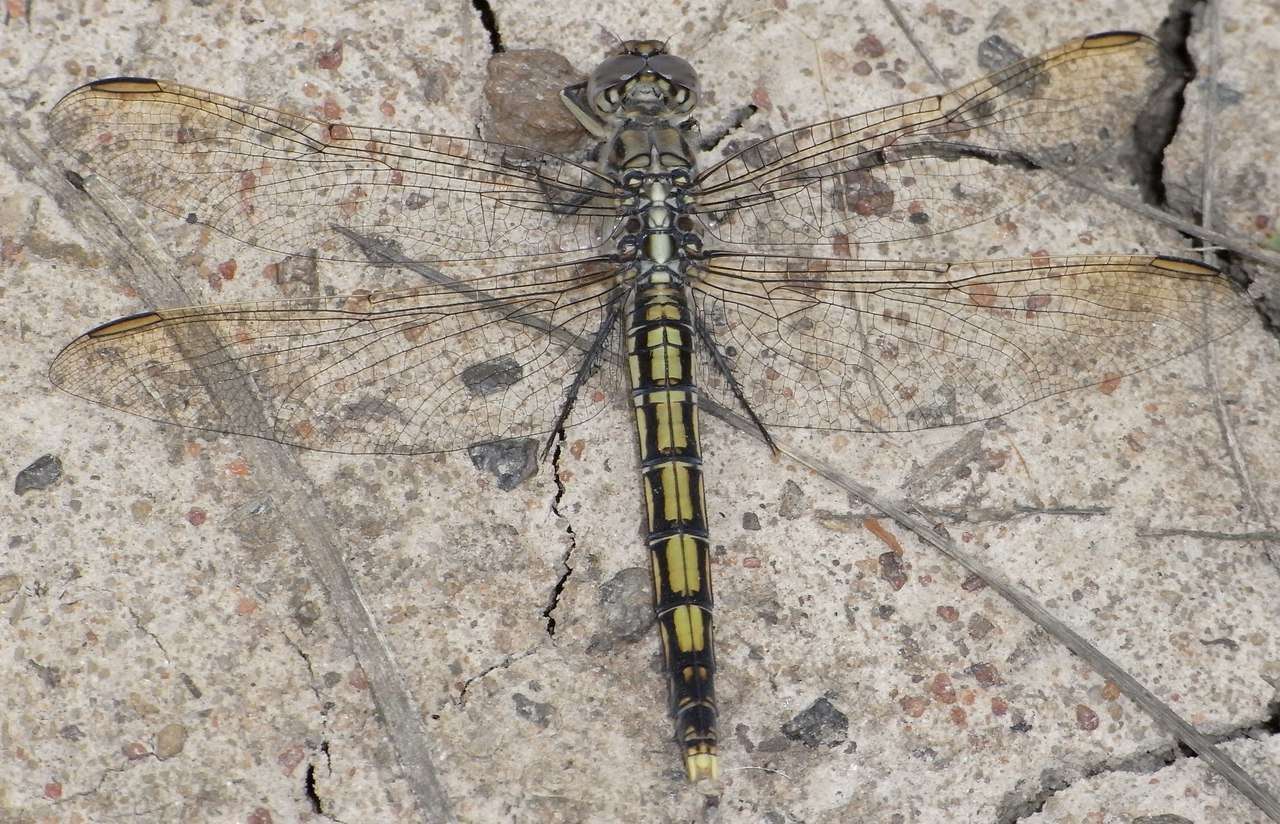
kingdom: Animalia
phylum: Arthropoda
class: Insecta
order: Odonata
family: Libellulidae
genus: Orthetrum
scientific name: Orthetrum caledonicum
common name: Blue skimmer
